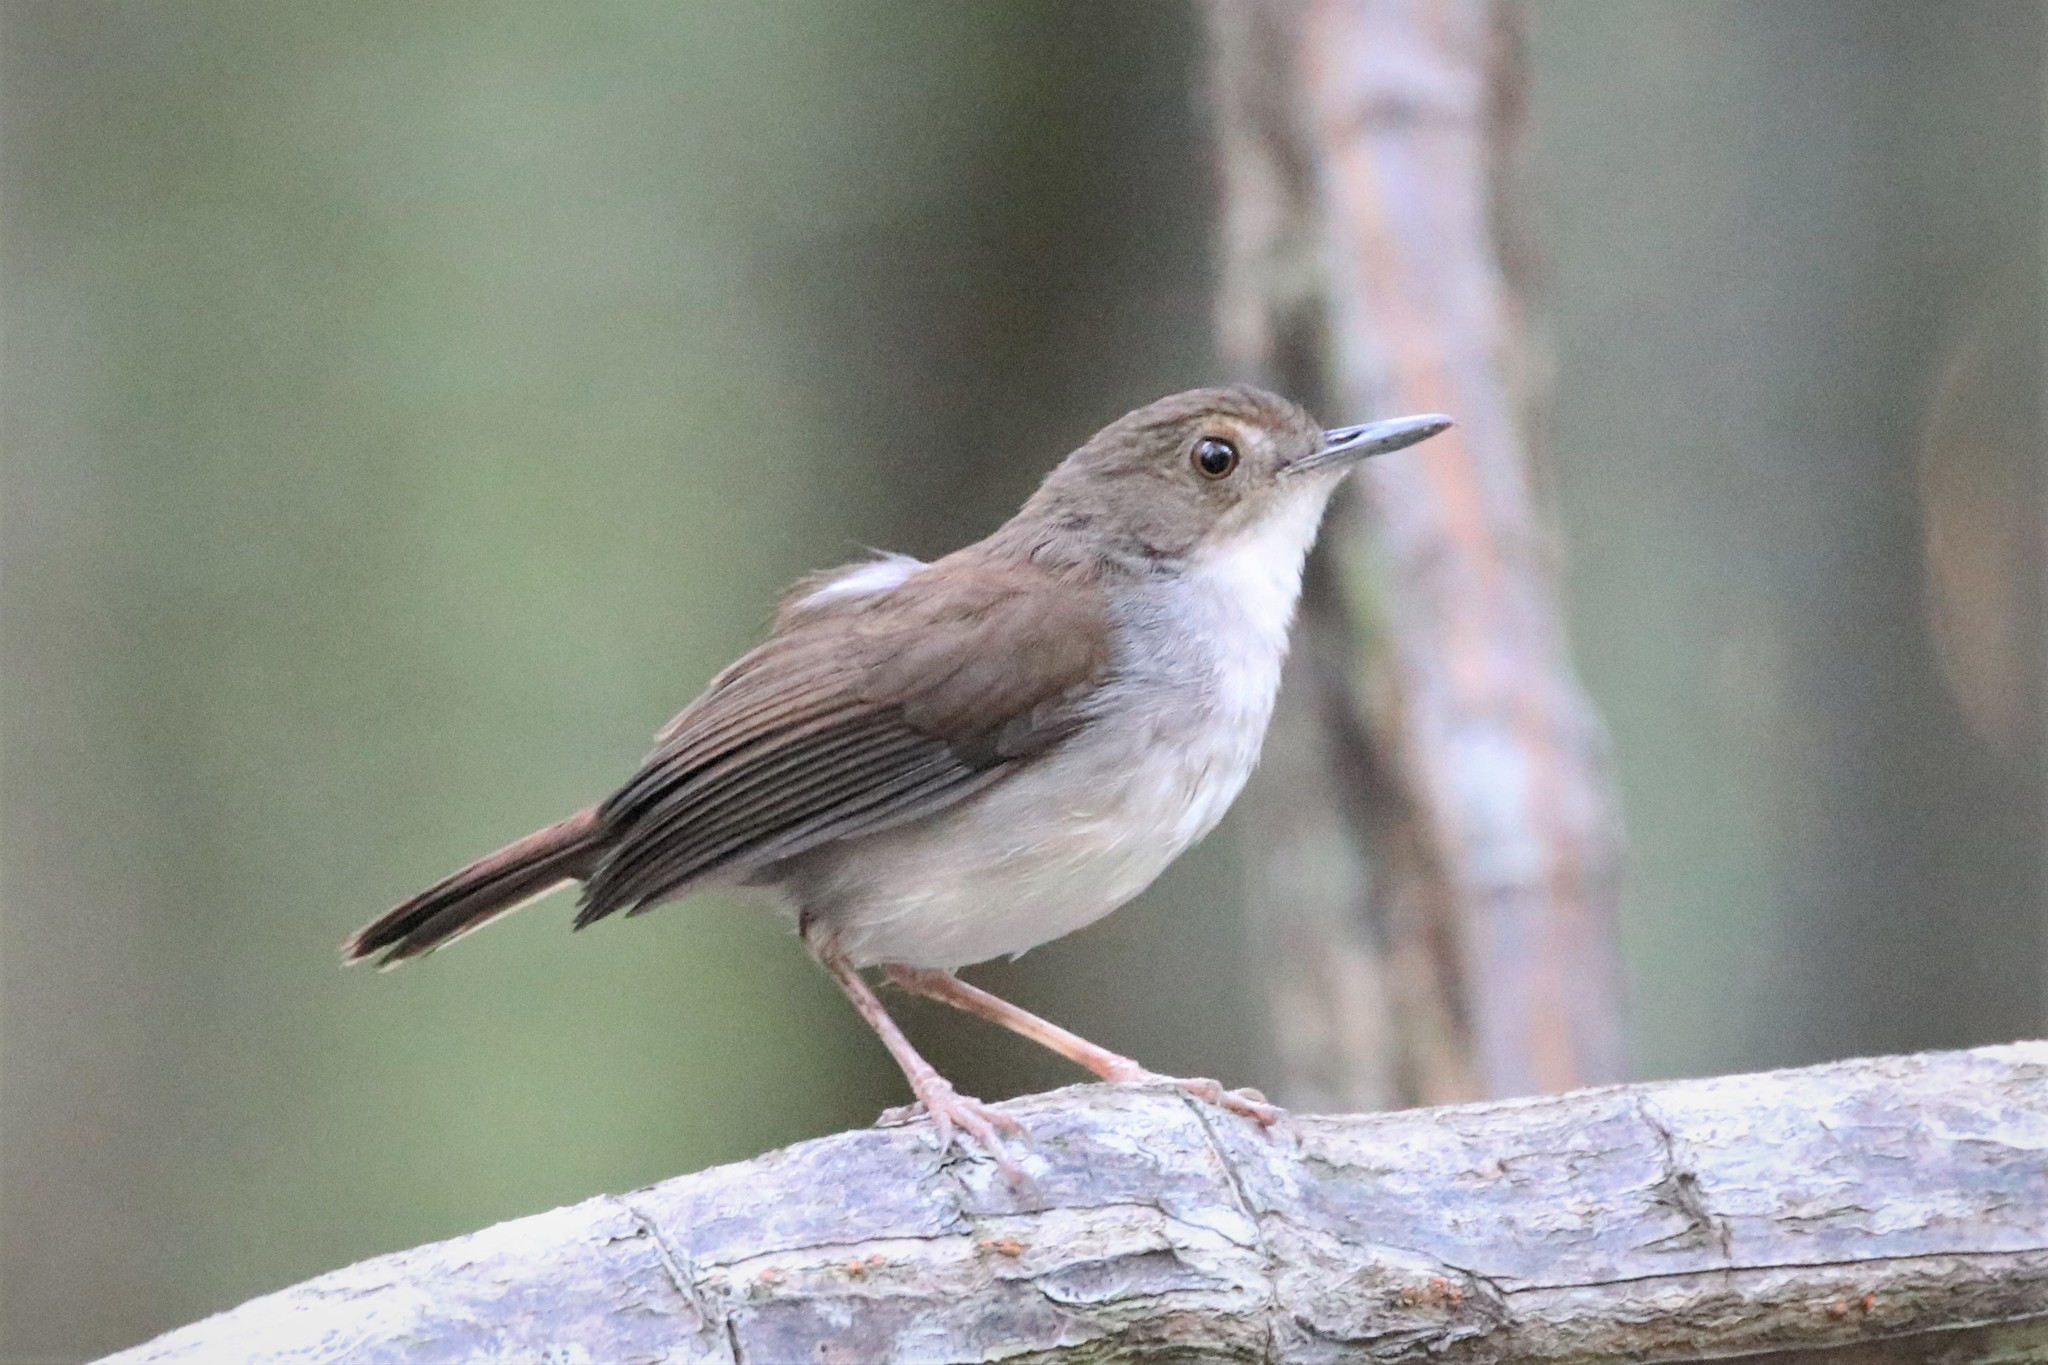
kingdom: Animalia
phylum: Chordata
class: Aves
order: Passeriformes
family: Pellorneidae
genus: Trichastoma
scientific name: Trichastoma rostratum
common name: White-chested babbler
